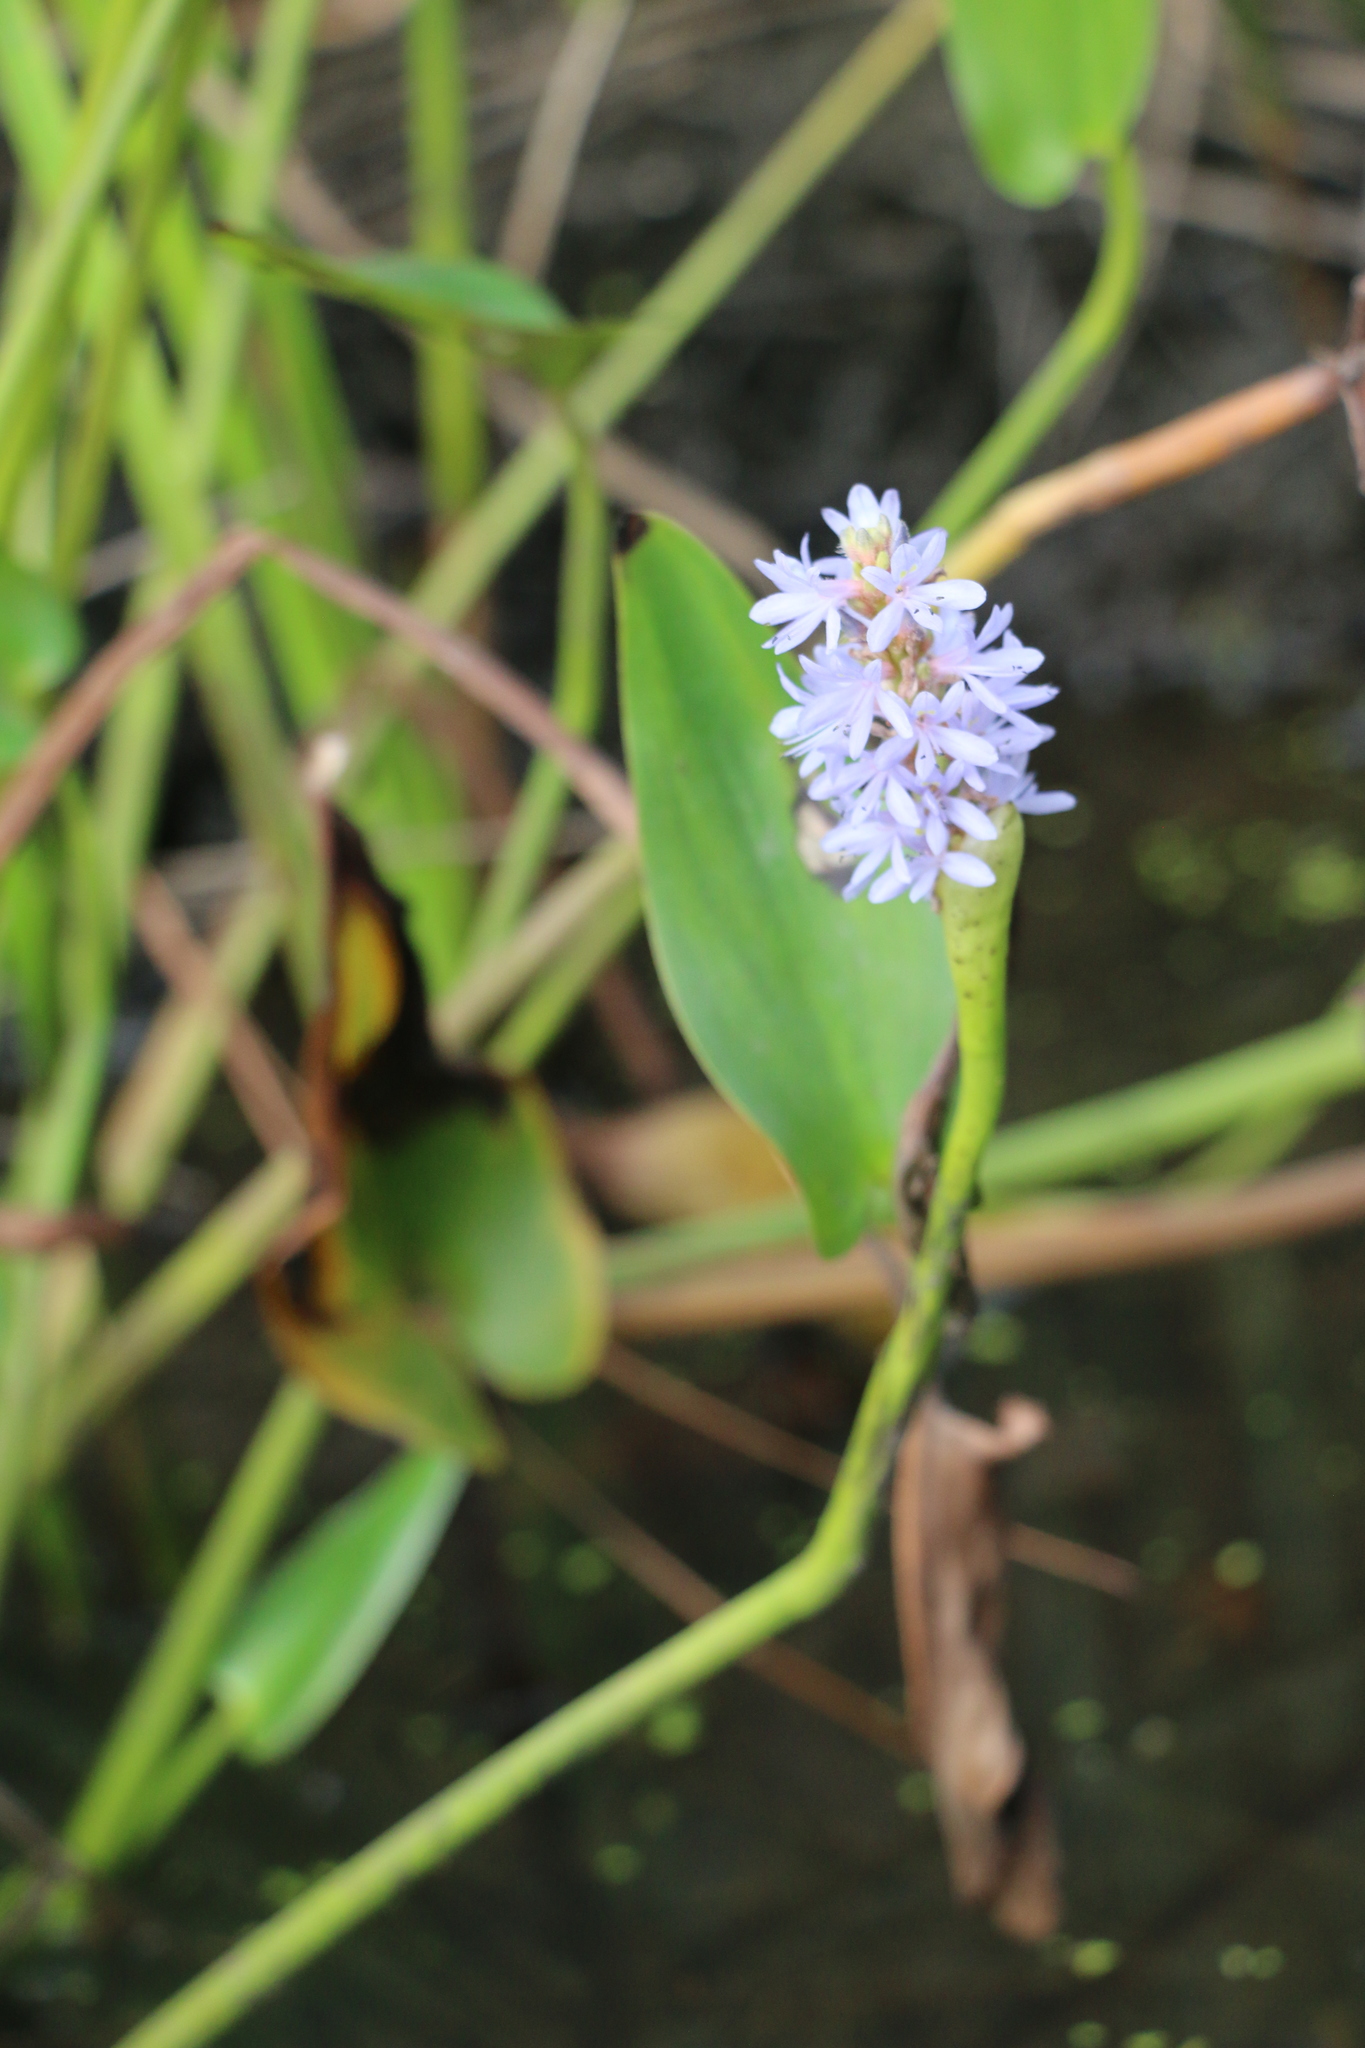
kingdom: Plantae
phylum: Tracheophyta
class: Liliopsida
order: Commelinales
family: Pontederiaceae
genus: Pontederia
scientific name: Pontederia cordata
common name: Pickerelweed
